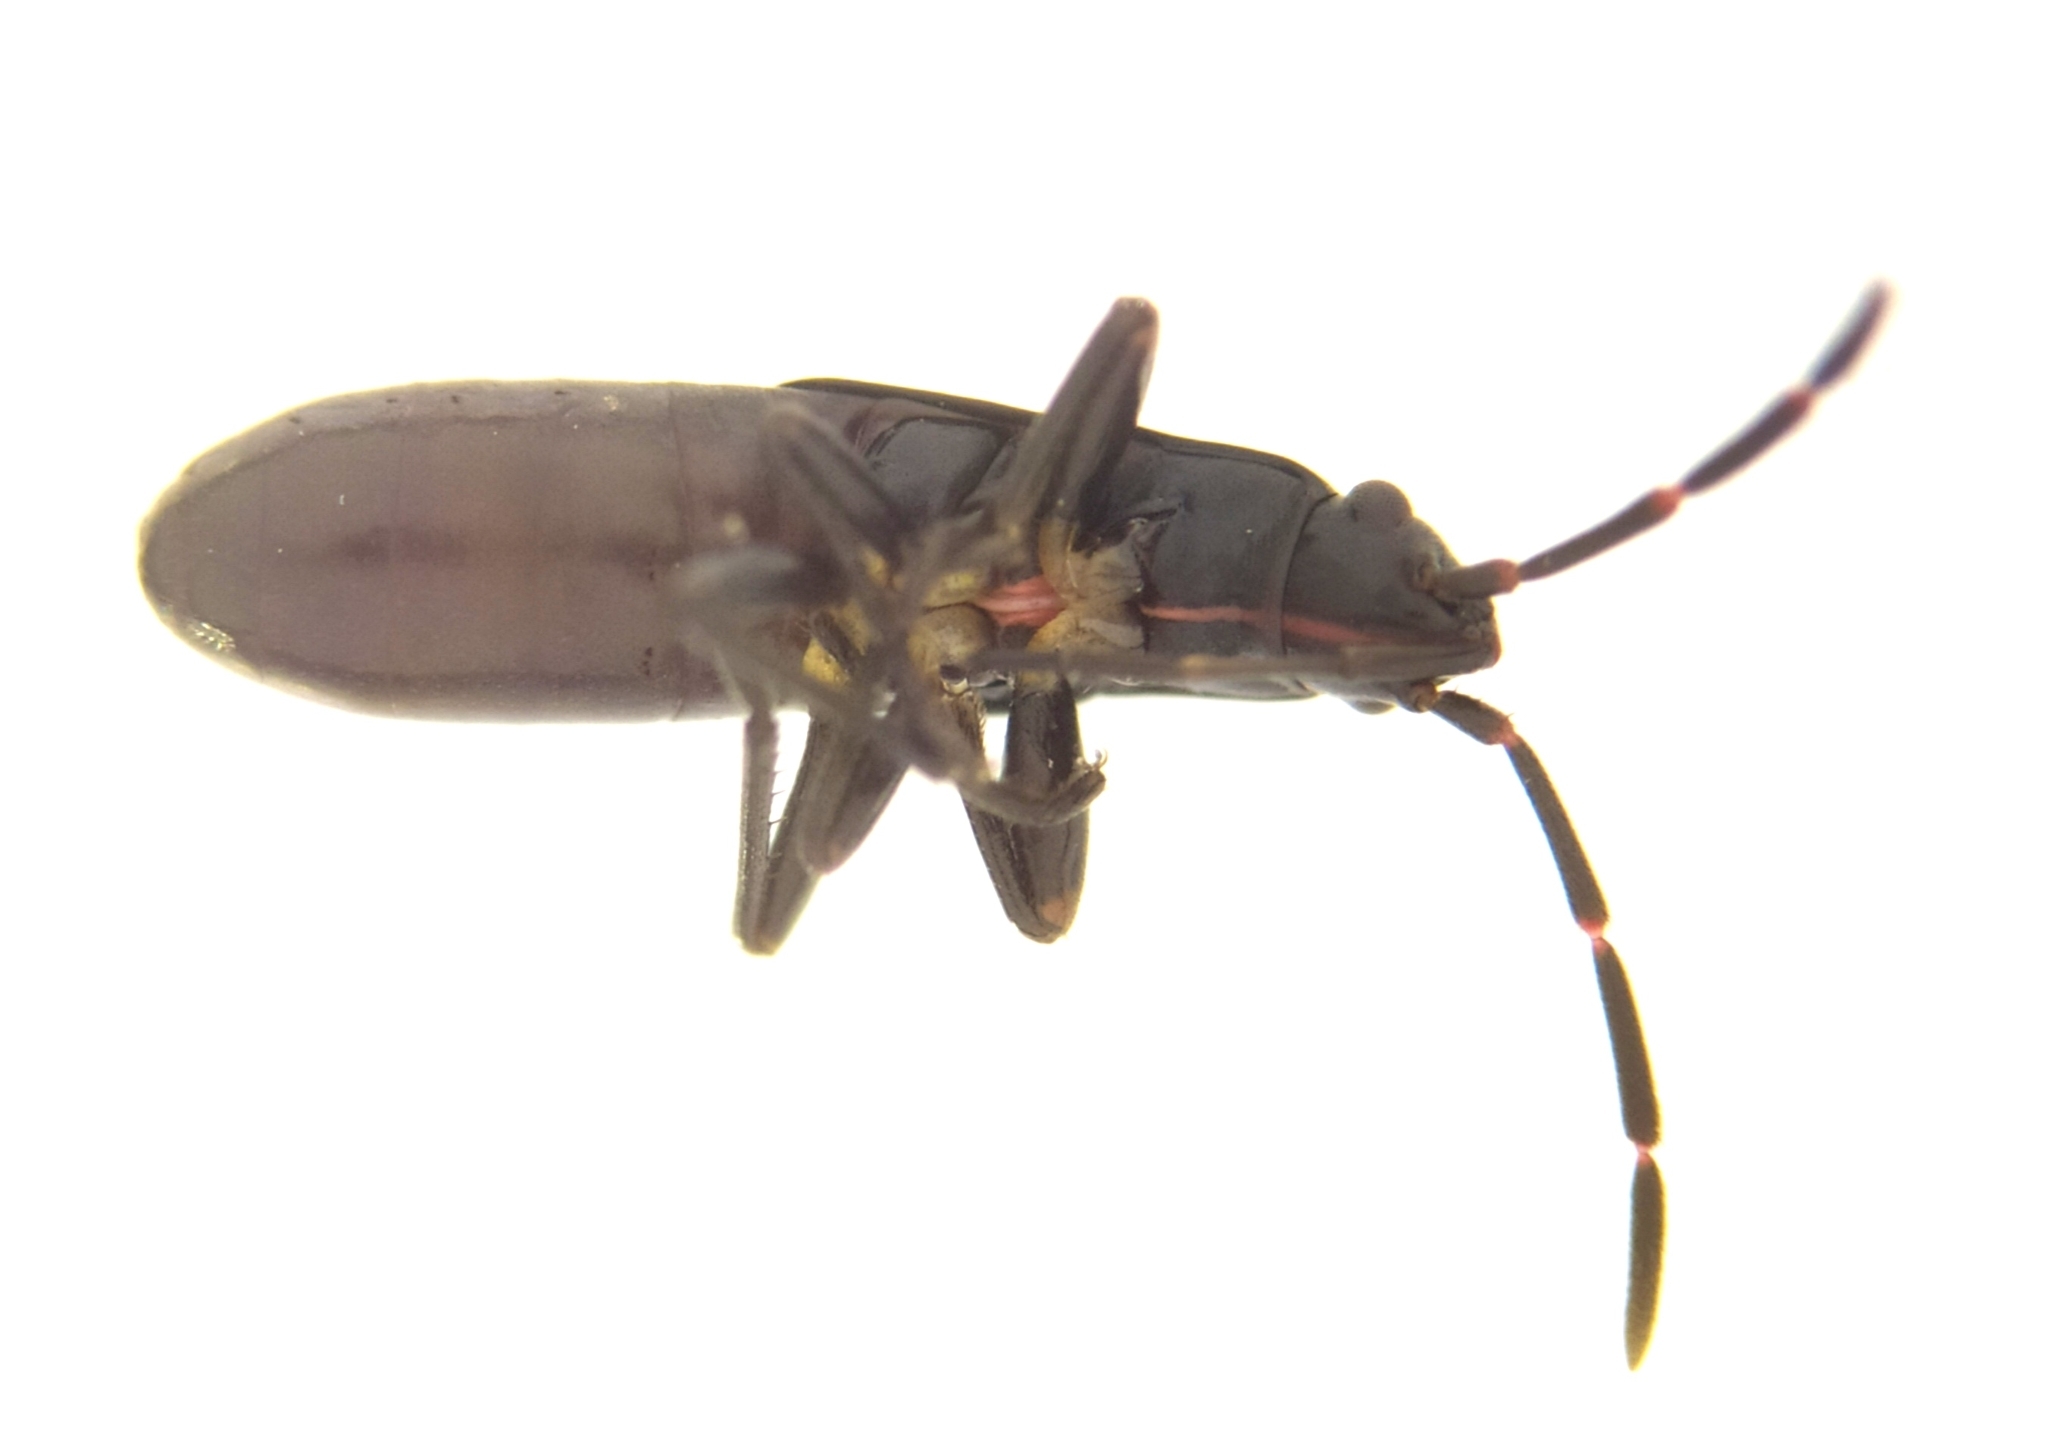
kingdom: Animalia
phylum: Arthropoda
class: Insecta
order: Hemiptera
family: Rhyparochromidae
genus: Pterotmetus
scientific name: Pterotmetus staphyliniformis
